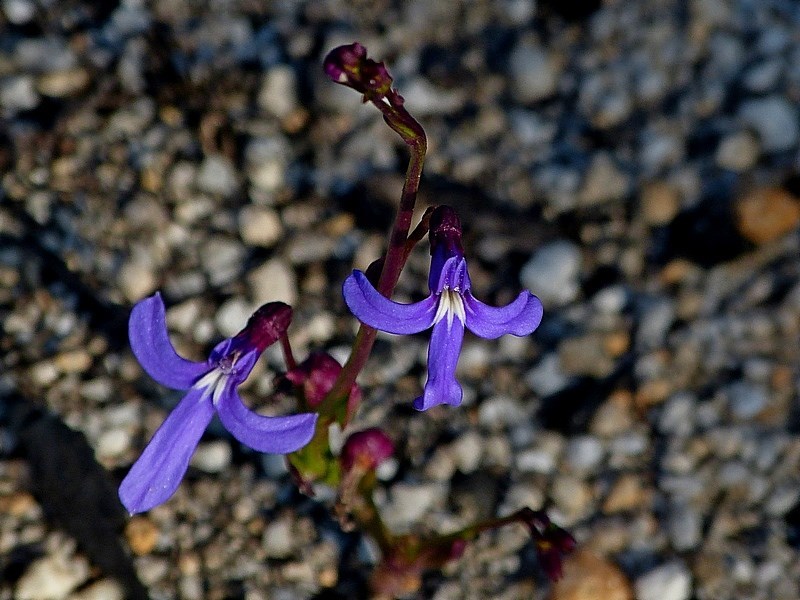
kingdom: Plantae
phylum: Tracheophyta
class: Magnoliopsida
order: Asterales
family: Campanulaceae
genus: Lobelia
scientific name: Lobelia dentata
